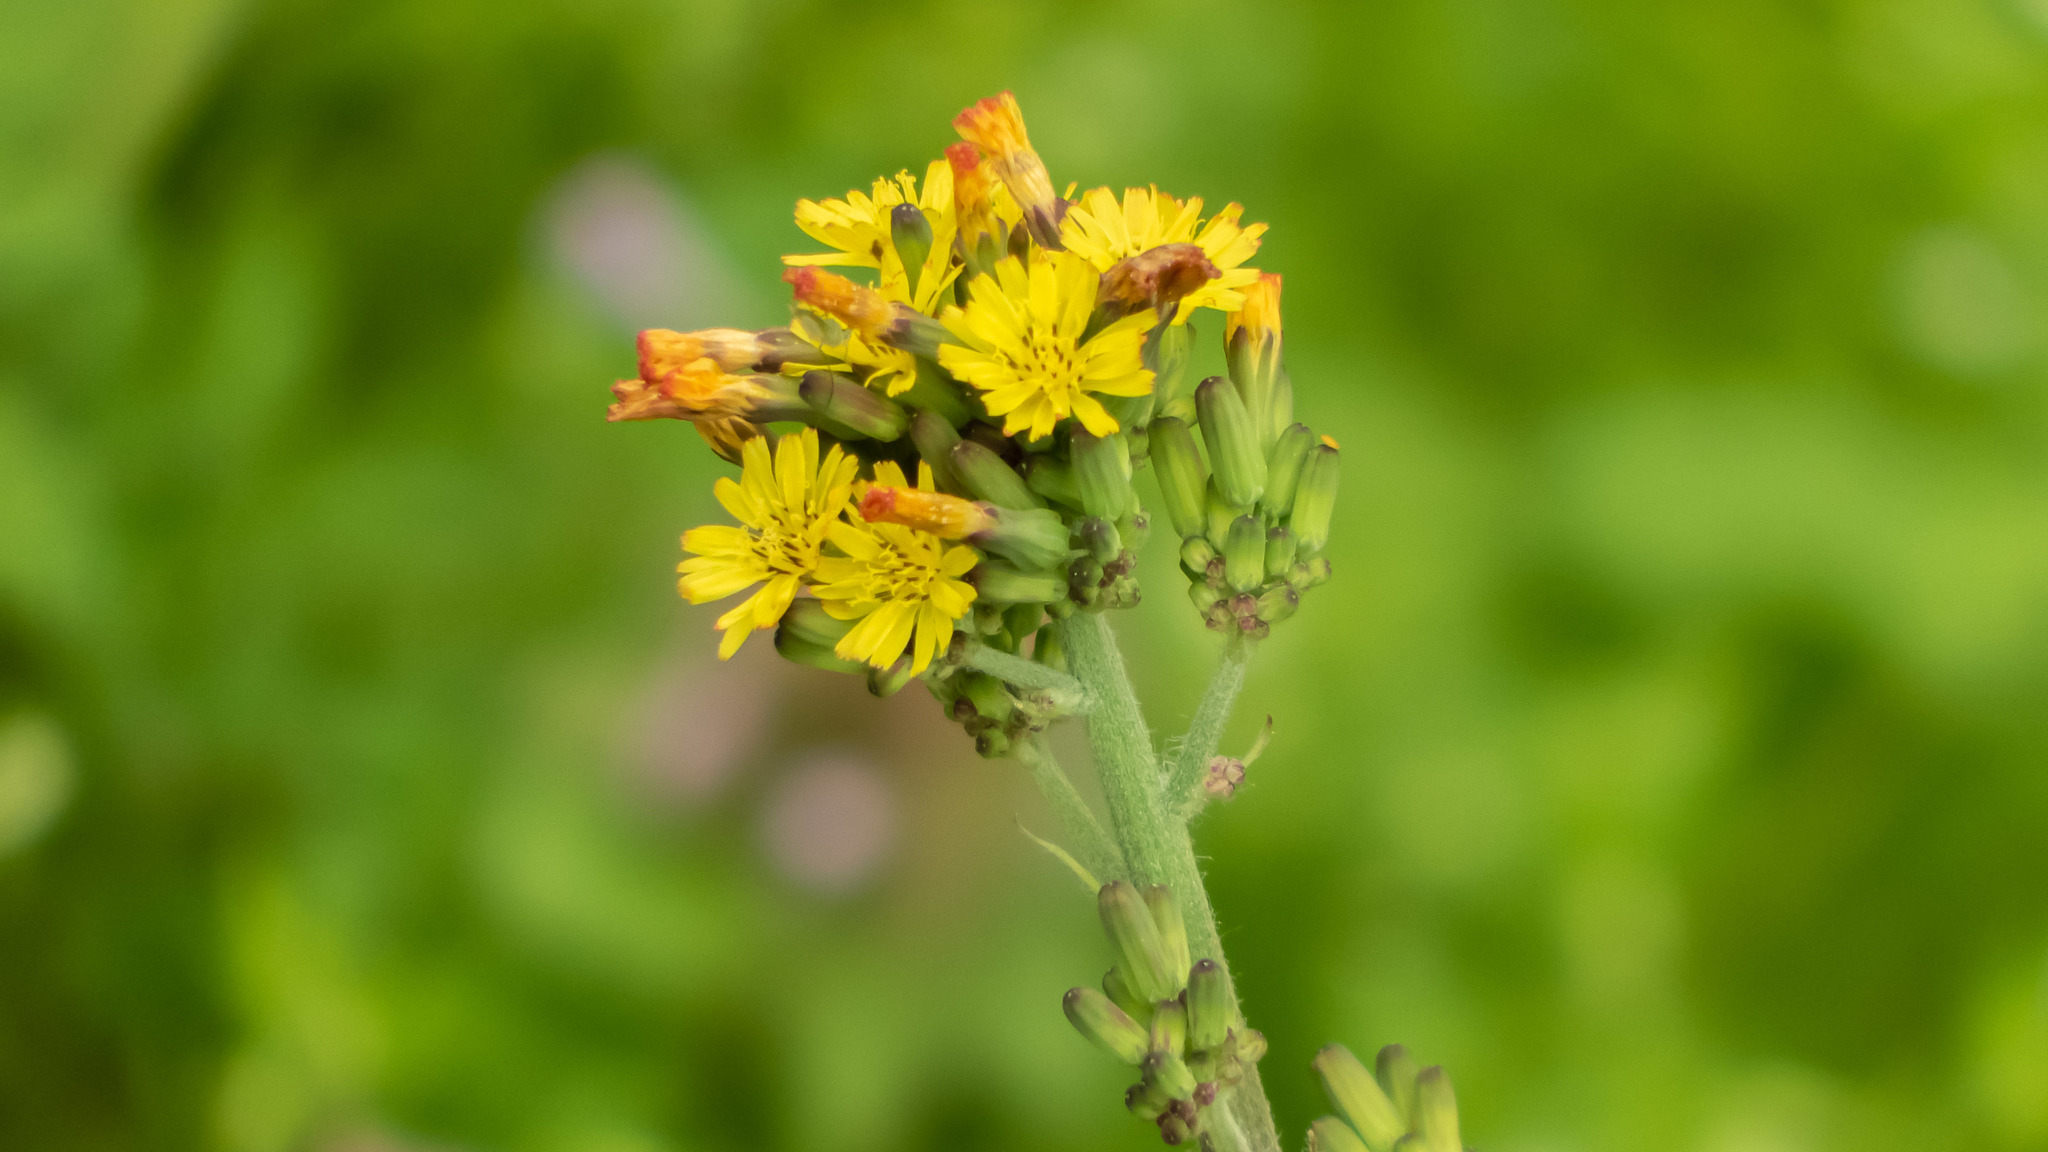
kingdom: Plantae
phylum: Tracheophyta
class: Magnoliopsida
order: Asterales
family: Asteraceae
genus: Youngia
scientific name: Youngia japonica
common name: Oriental false hawksbeard
